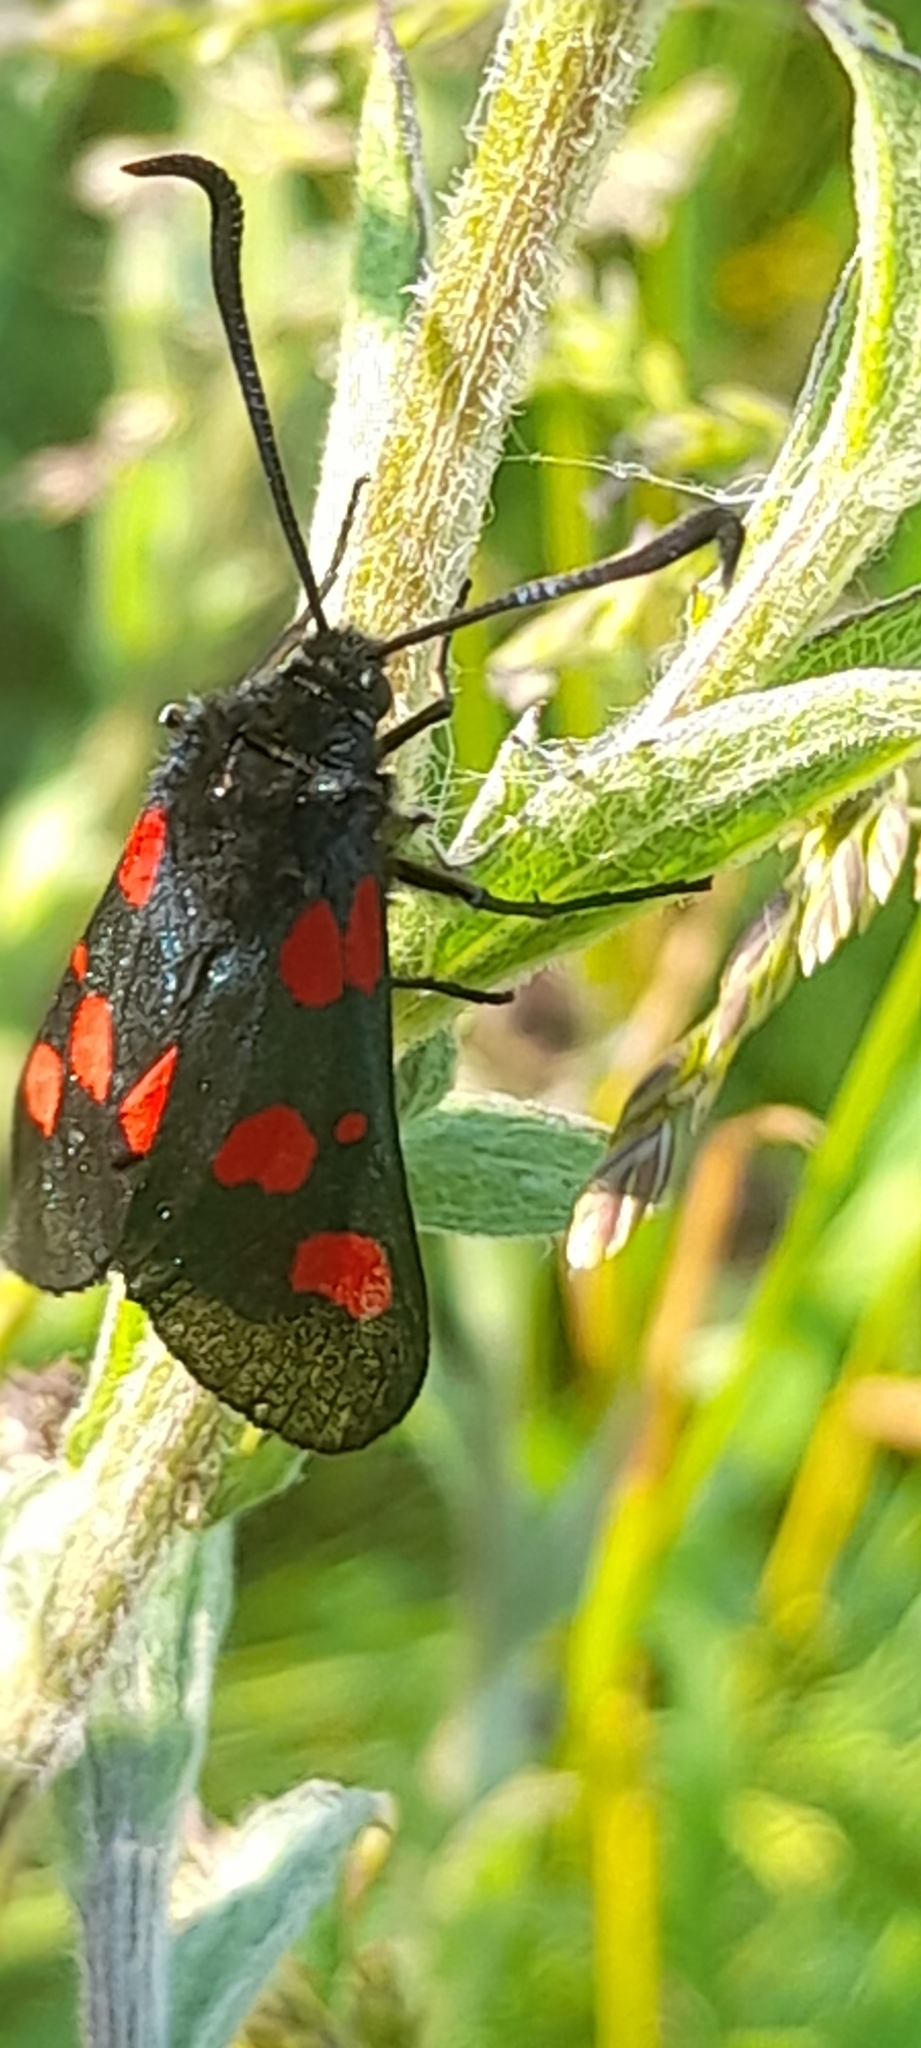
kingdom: Animalia
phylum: Arthropoda
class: Insecta
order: Lepidoptera
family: Zygaenidae
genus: Zygaena
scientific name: Zygaena trifolii
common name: Five-spot burnet
